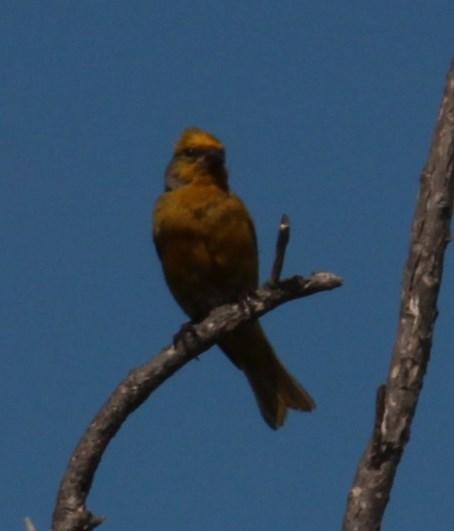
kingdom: Animalia
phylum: Chordata
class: Aves
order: Passeriformes
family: Fringillidae
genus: Serinus
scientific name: Serinus canicollis
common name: Cape canary
